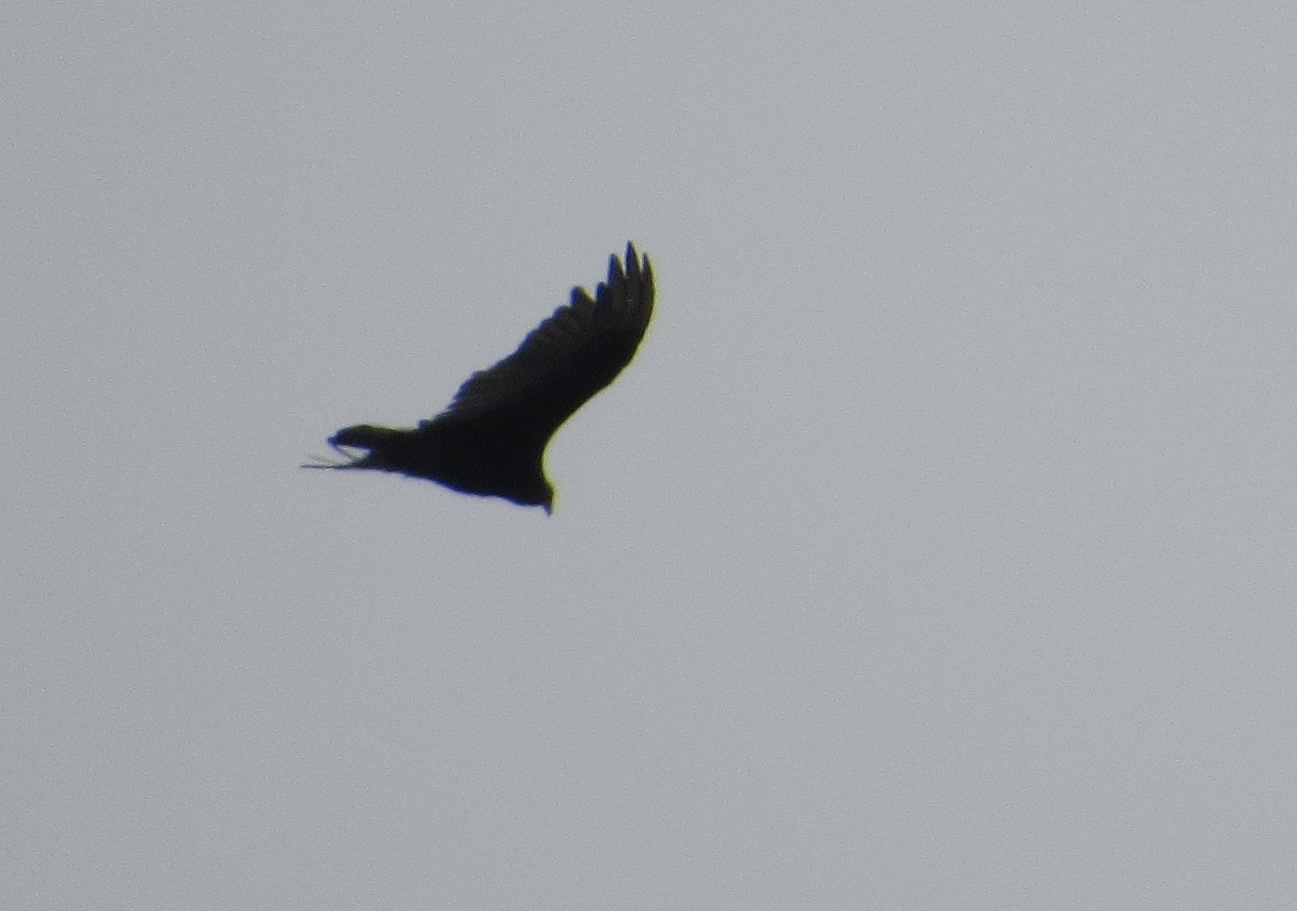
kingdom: Animalia
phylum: Chordata
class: Aves
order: Accipitriformes
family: Cathartidae
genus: Cathartes
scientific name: Cathartes aura
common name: Turkey vulture
